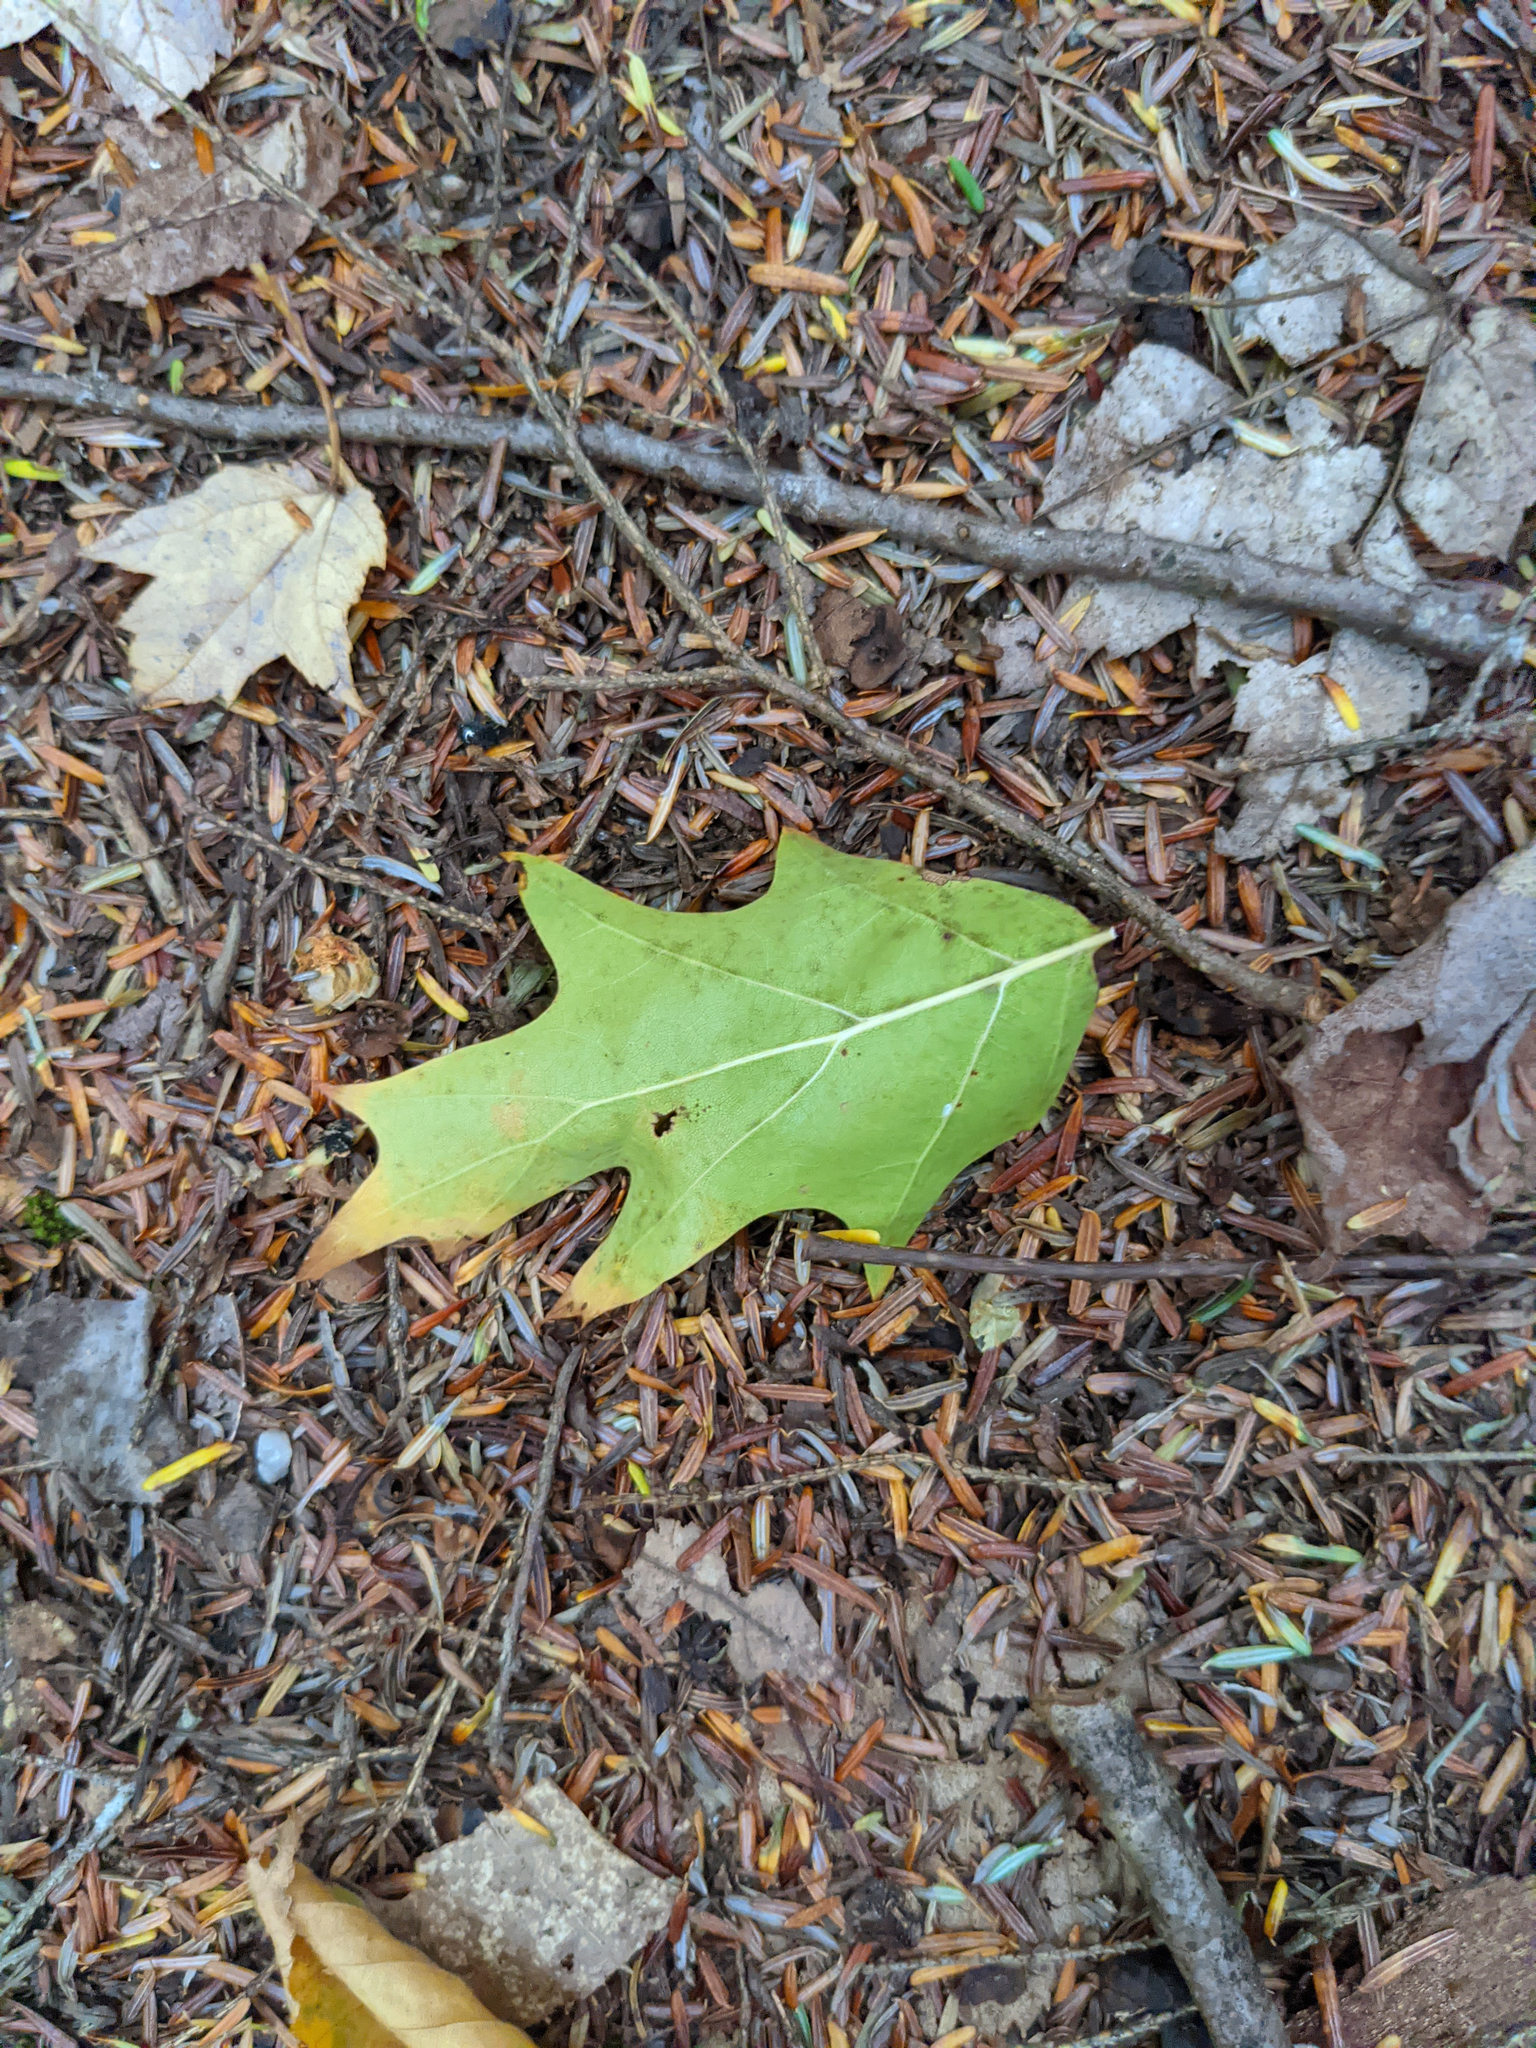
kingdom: Plantae
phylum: Tracheophyta
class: Magnoliopsida
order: Fagales
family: Fagaceae
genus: Quercus
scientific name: Quercus rubra
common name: Red oak
